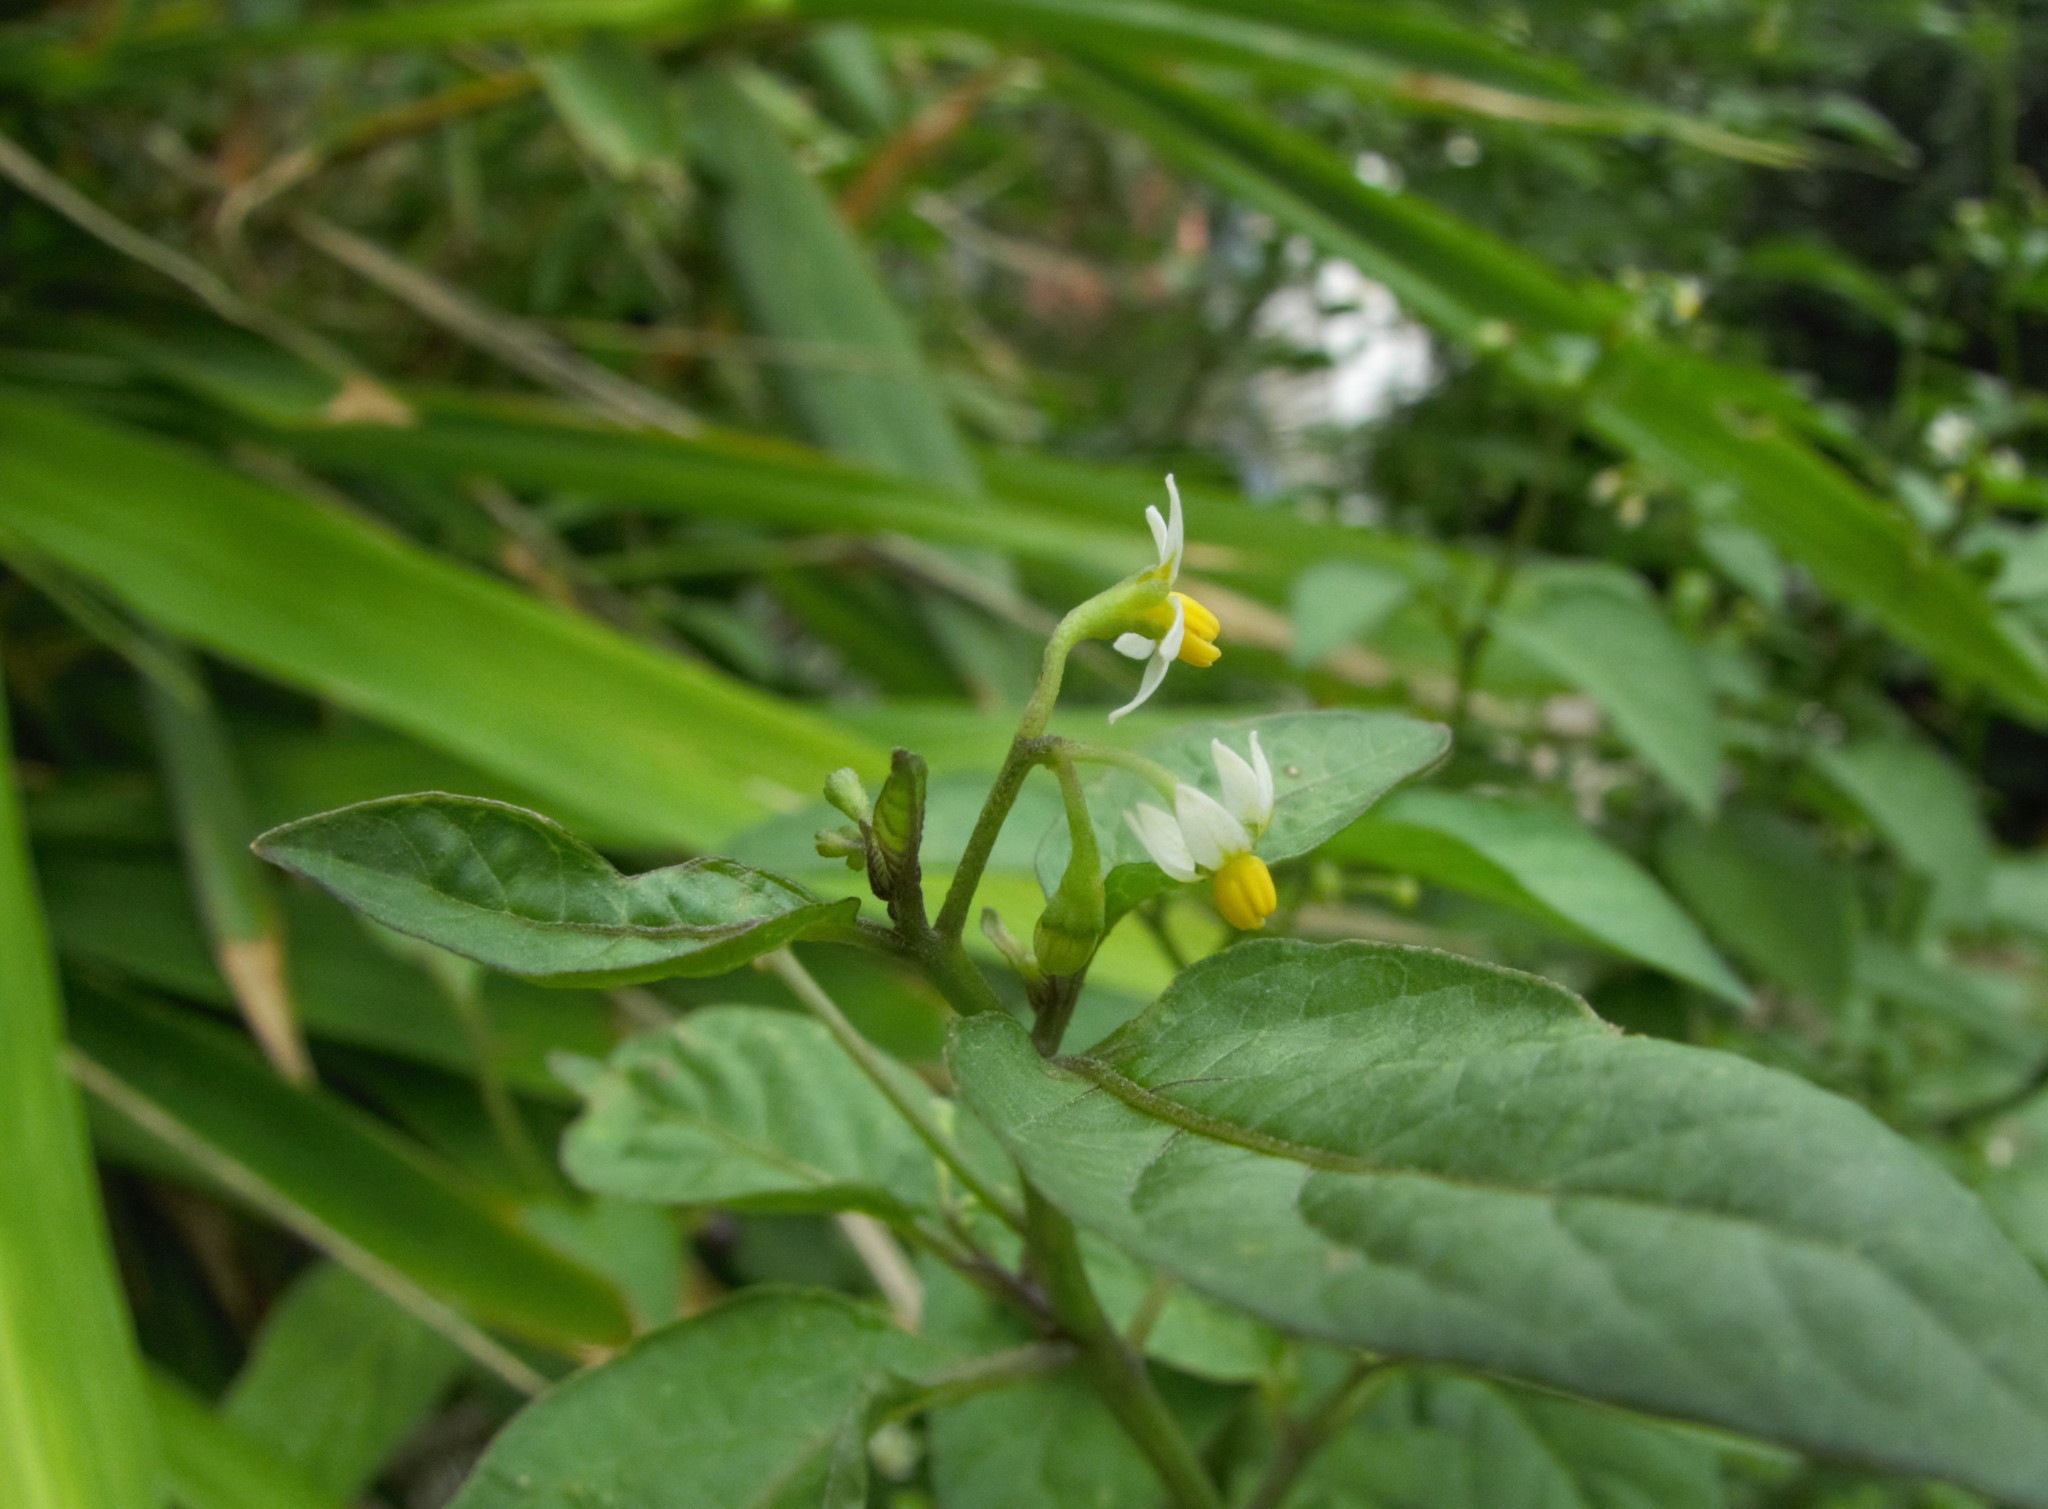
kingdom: Plantae
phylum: Tracheophyta
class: Magnoliopsida
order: Solanales
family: Solanaceae
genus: Solanum
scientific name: Solanum americanum
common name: American black nightshade
